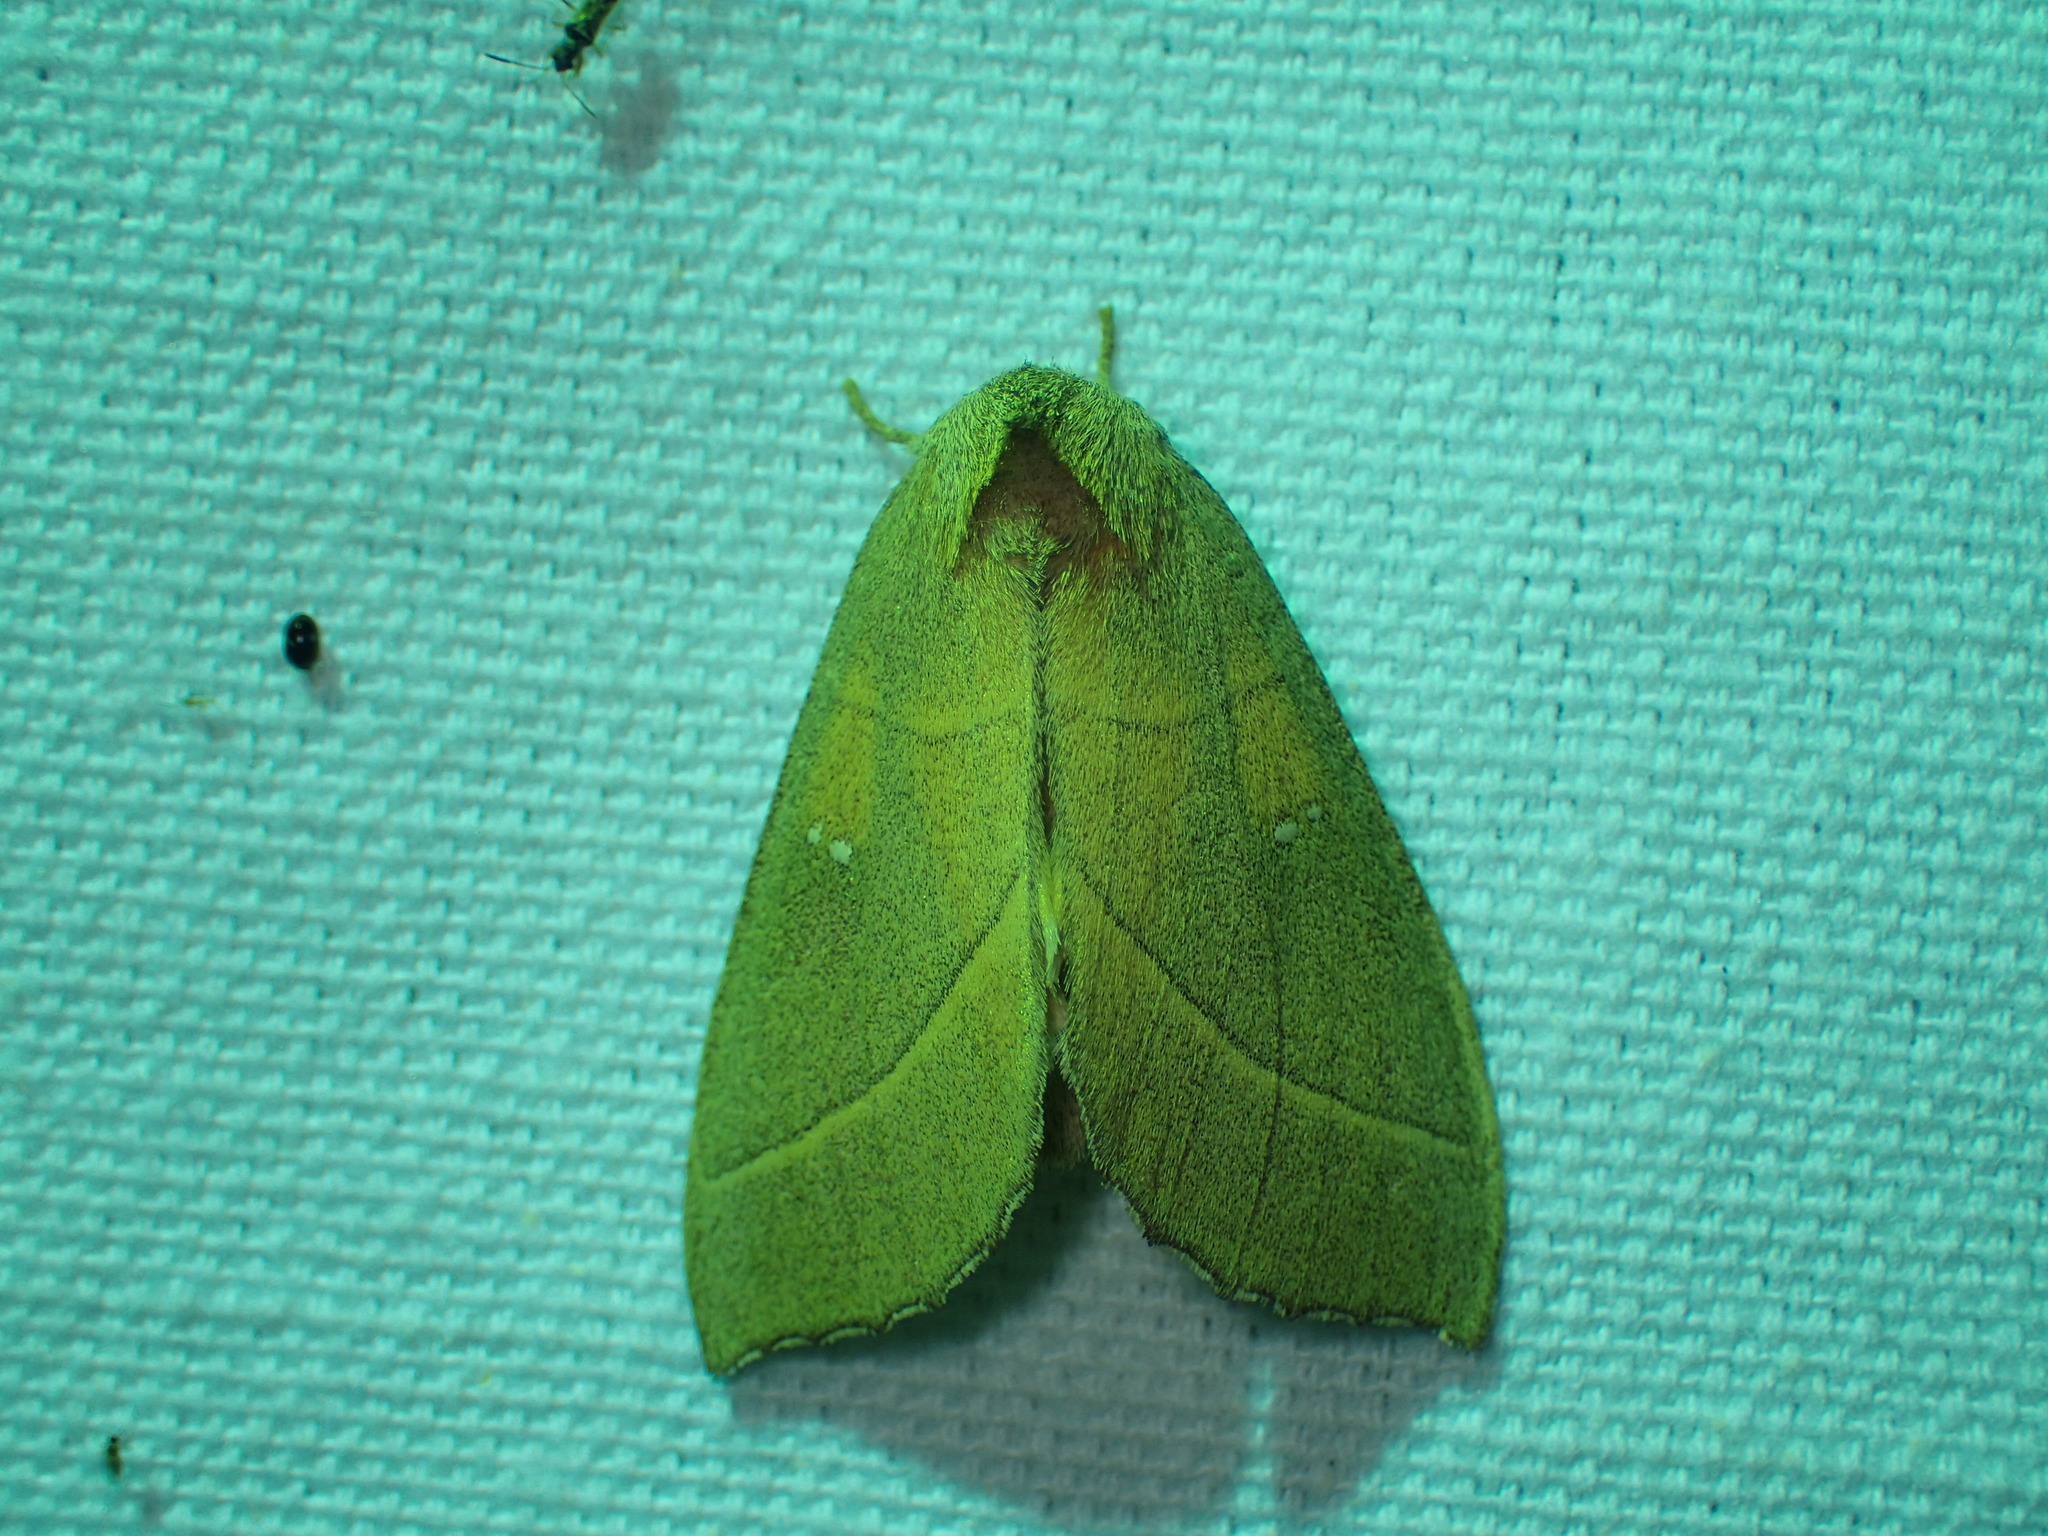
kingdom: Animalia
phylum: Arthropoda
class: Insecta
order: Lepidoptera
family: Notodontidae
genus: Nadata
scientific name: Nadata gibbosa
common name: White-dotted prominent
